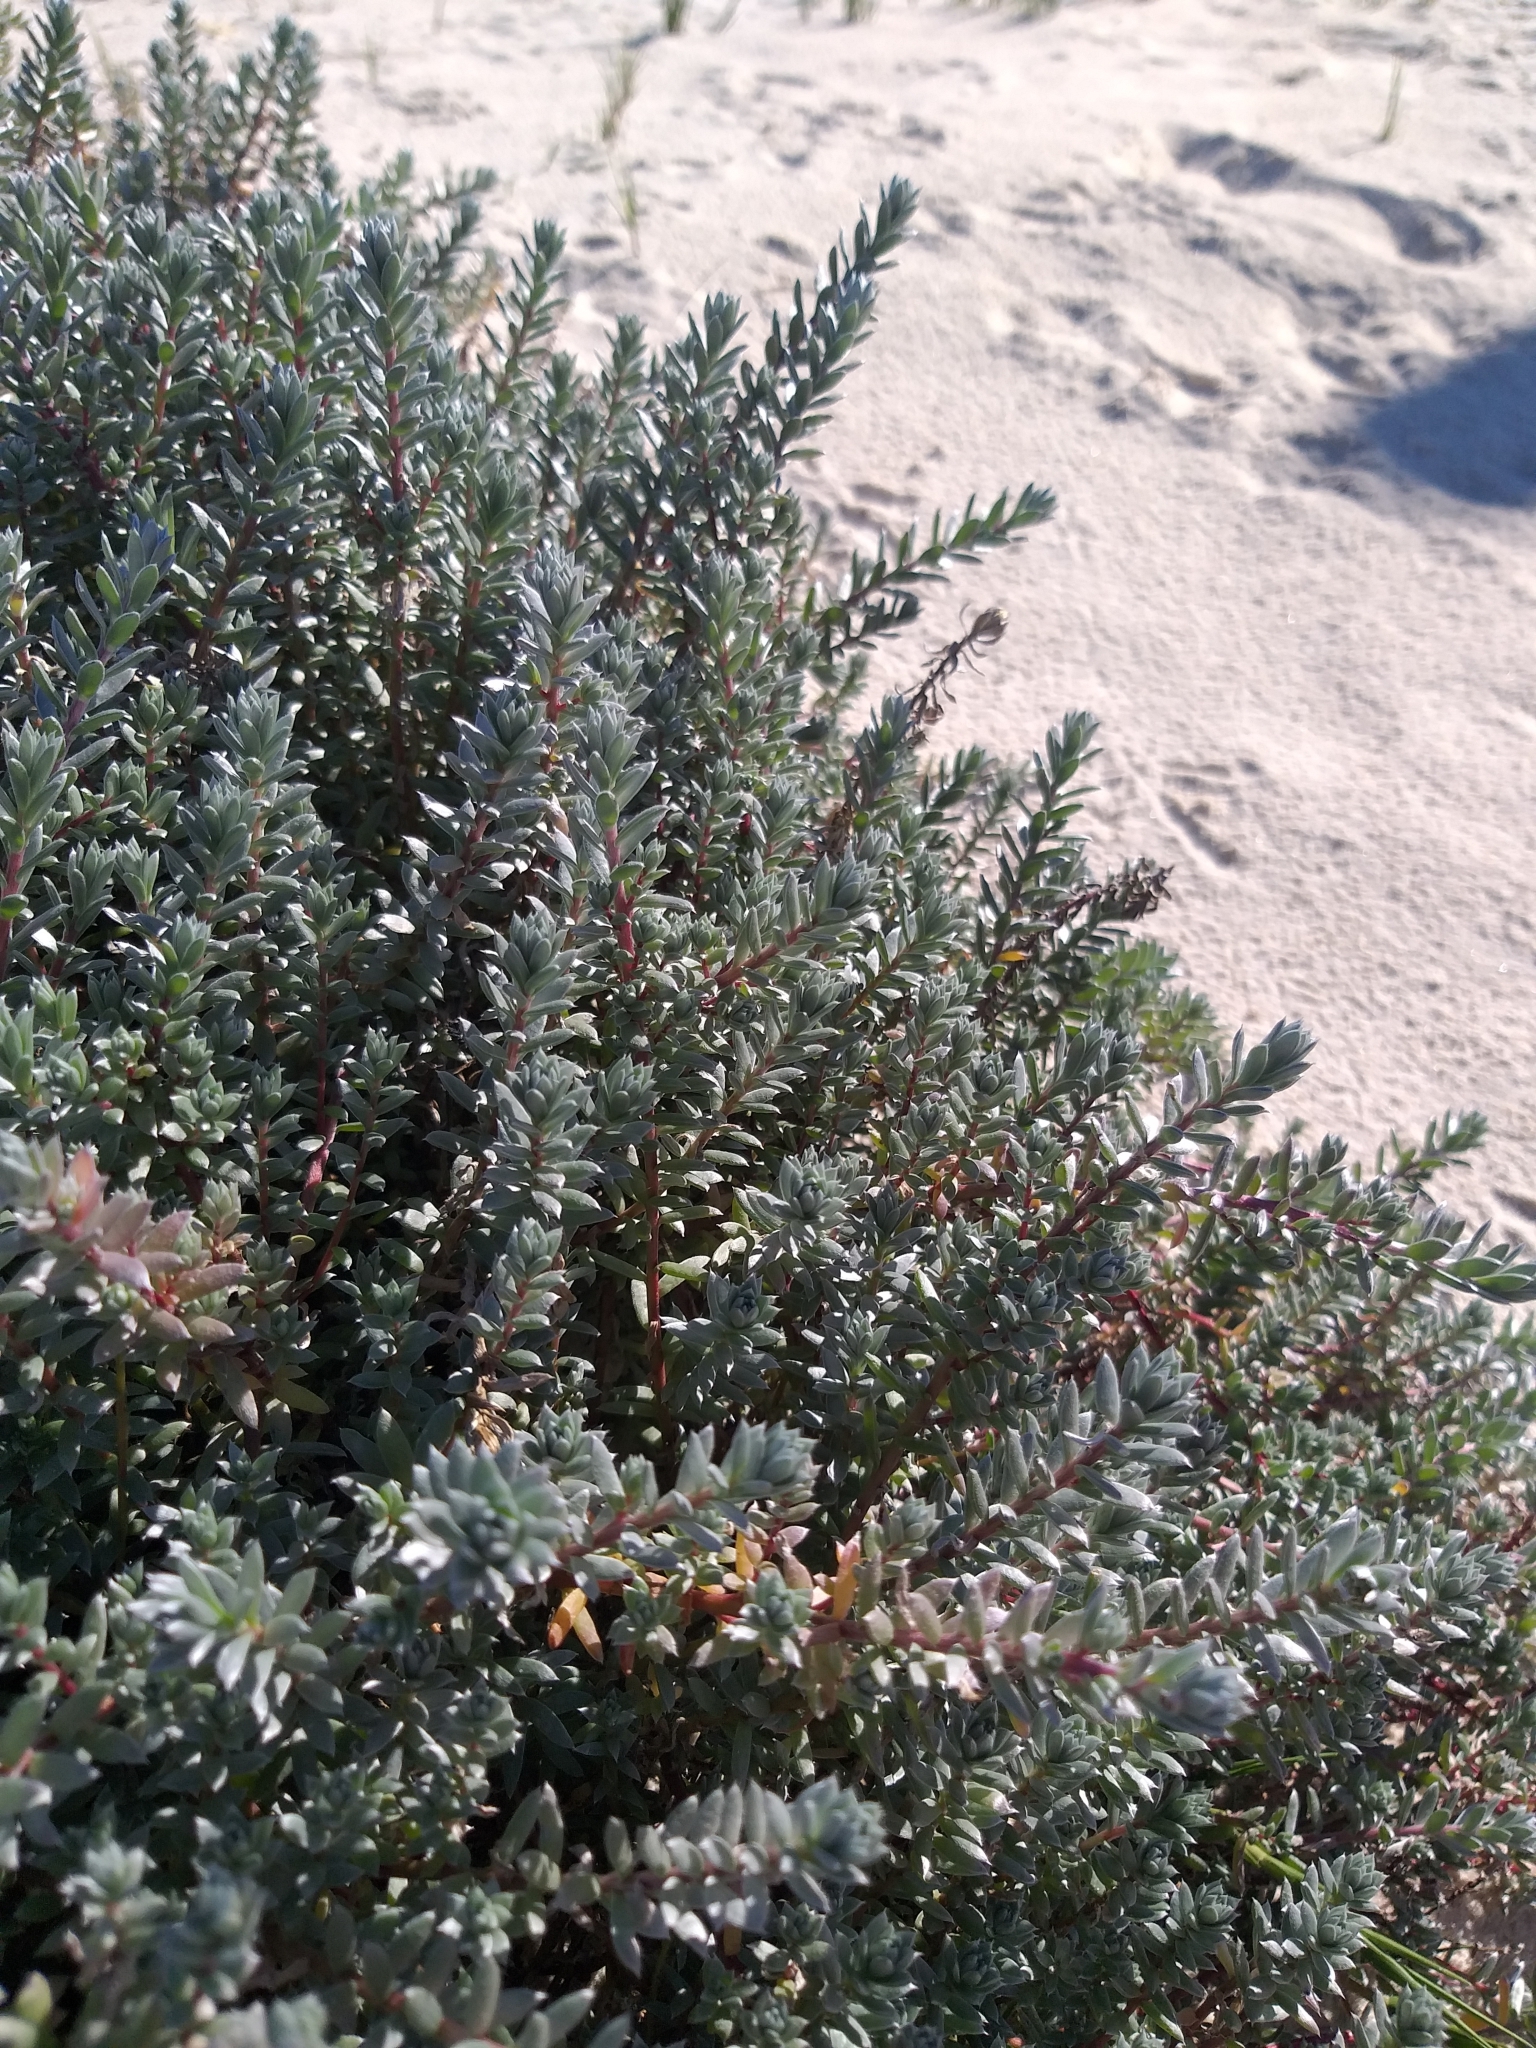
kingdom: Plantae
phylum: Tracheophyta
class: Magnoliopsida
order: Caryophyllales
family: Amaranthaceae
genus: Chenolea
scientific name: Chenolea diffusa
